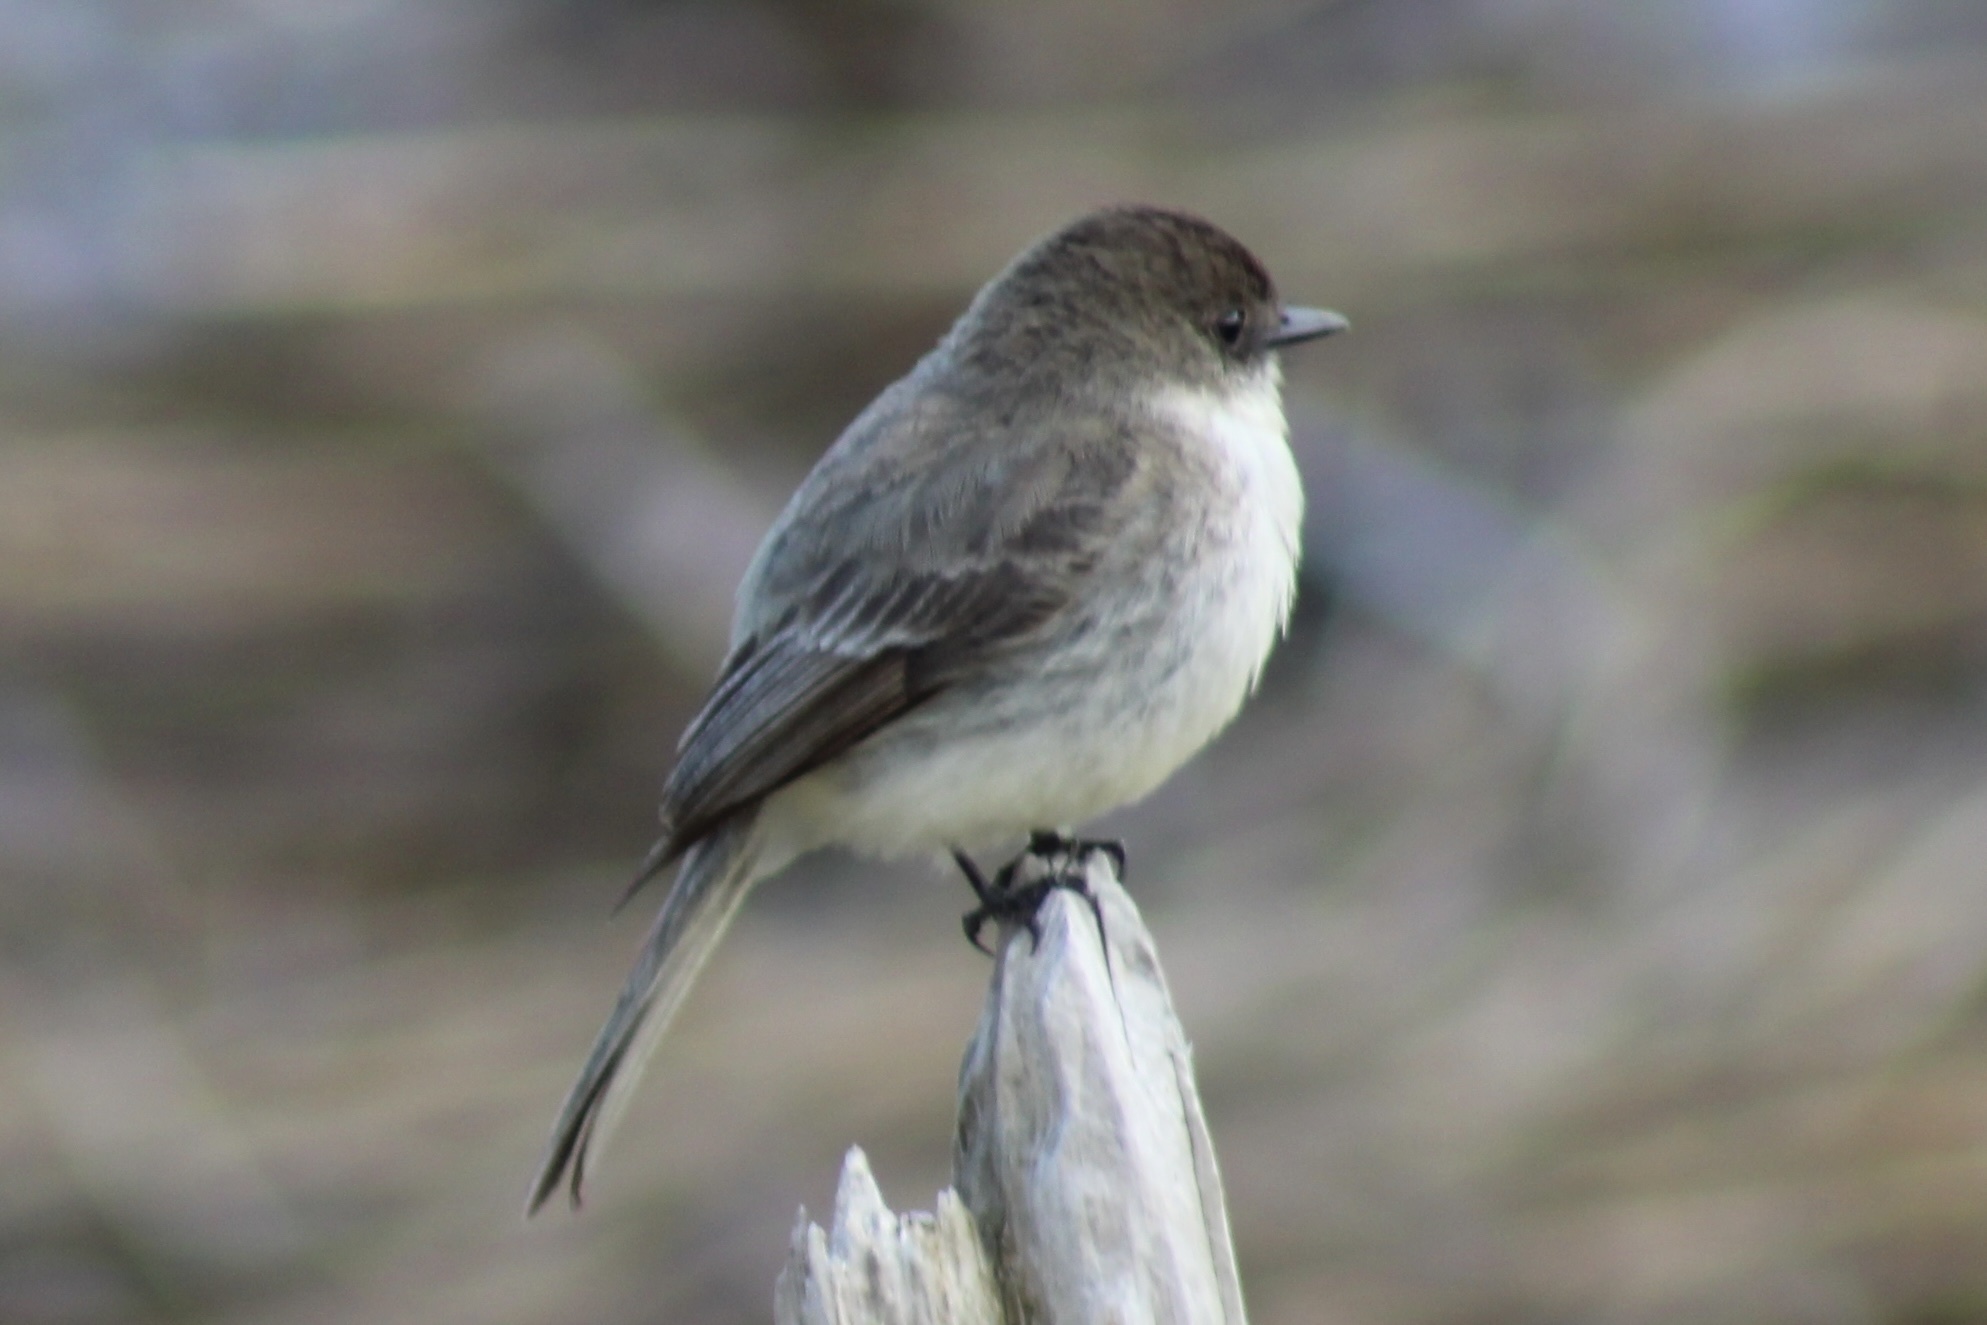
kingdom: Animalia
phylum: Chordata
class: Aves
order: Passeriformes
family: Tyrannidae
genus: Sayornis
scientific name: Sayornis phoebe
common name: Eastern phoebe
